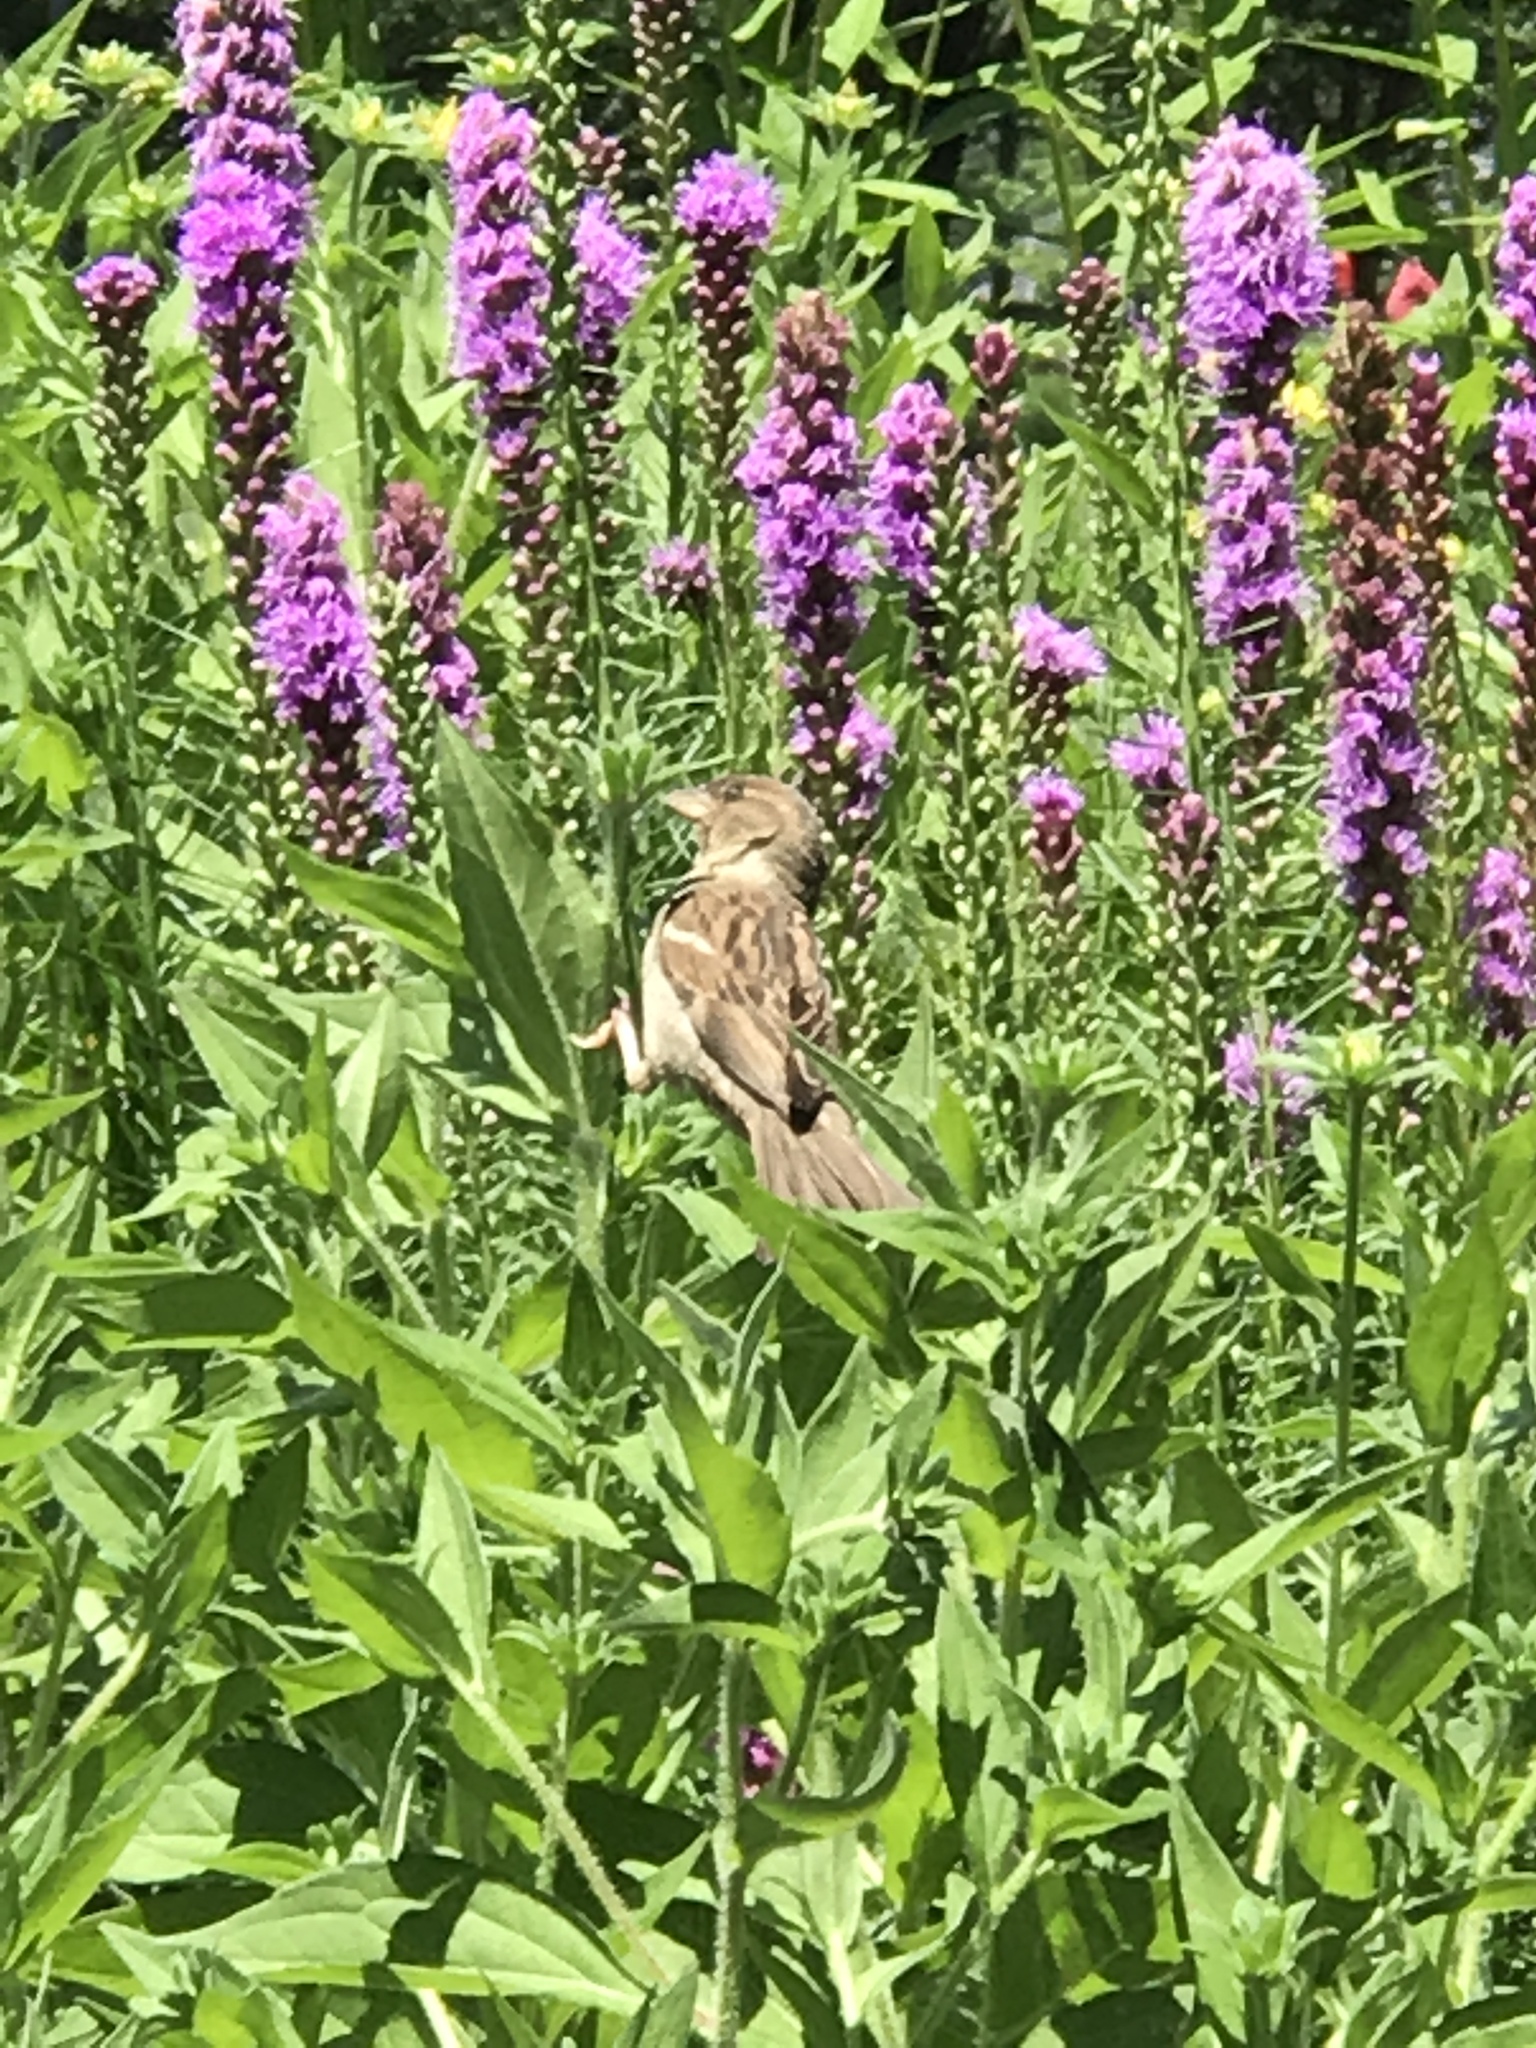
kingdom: Animalia
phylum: Chordata
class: Aves
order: Passeriformes
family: Passeridae
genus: Passer
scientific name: Passer domesticus
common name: House sparrow
